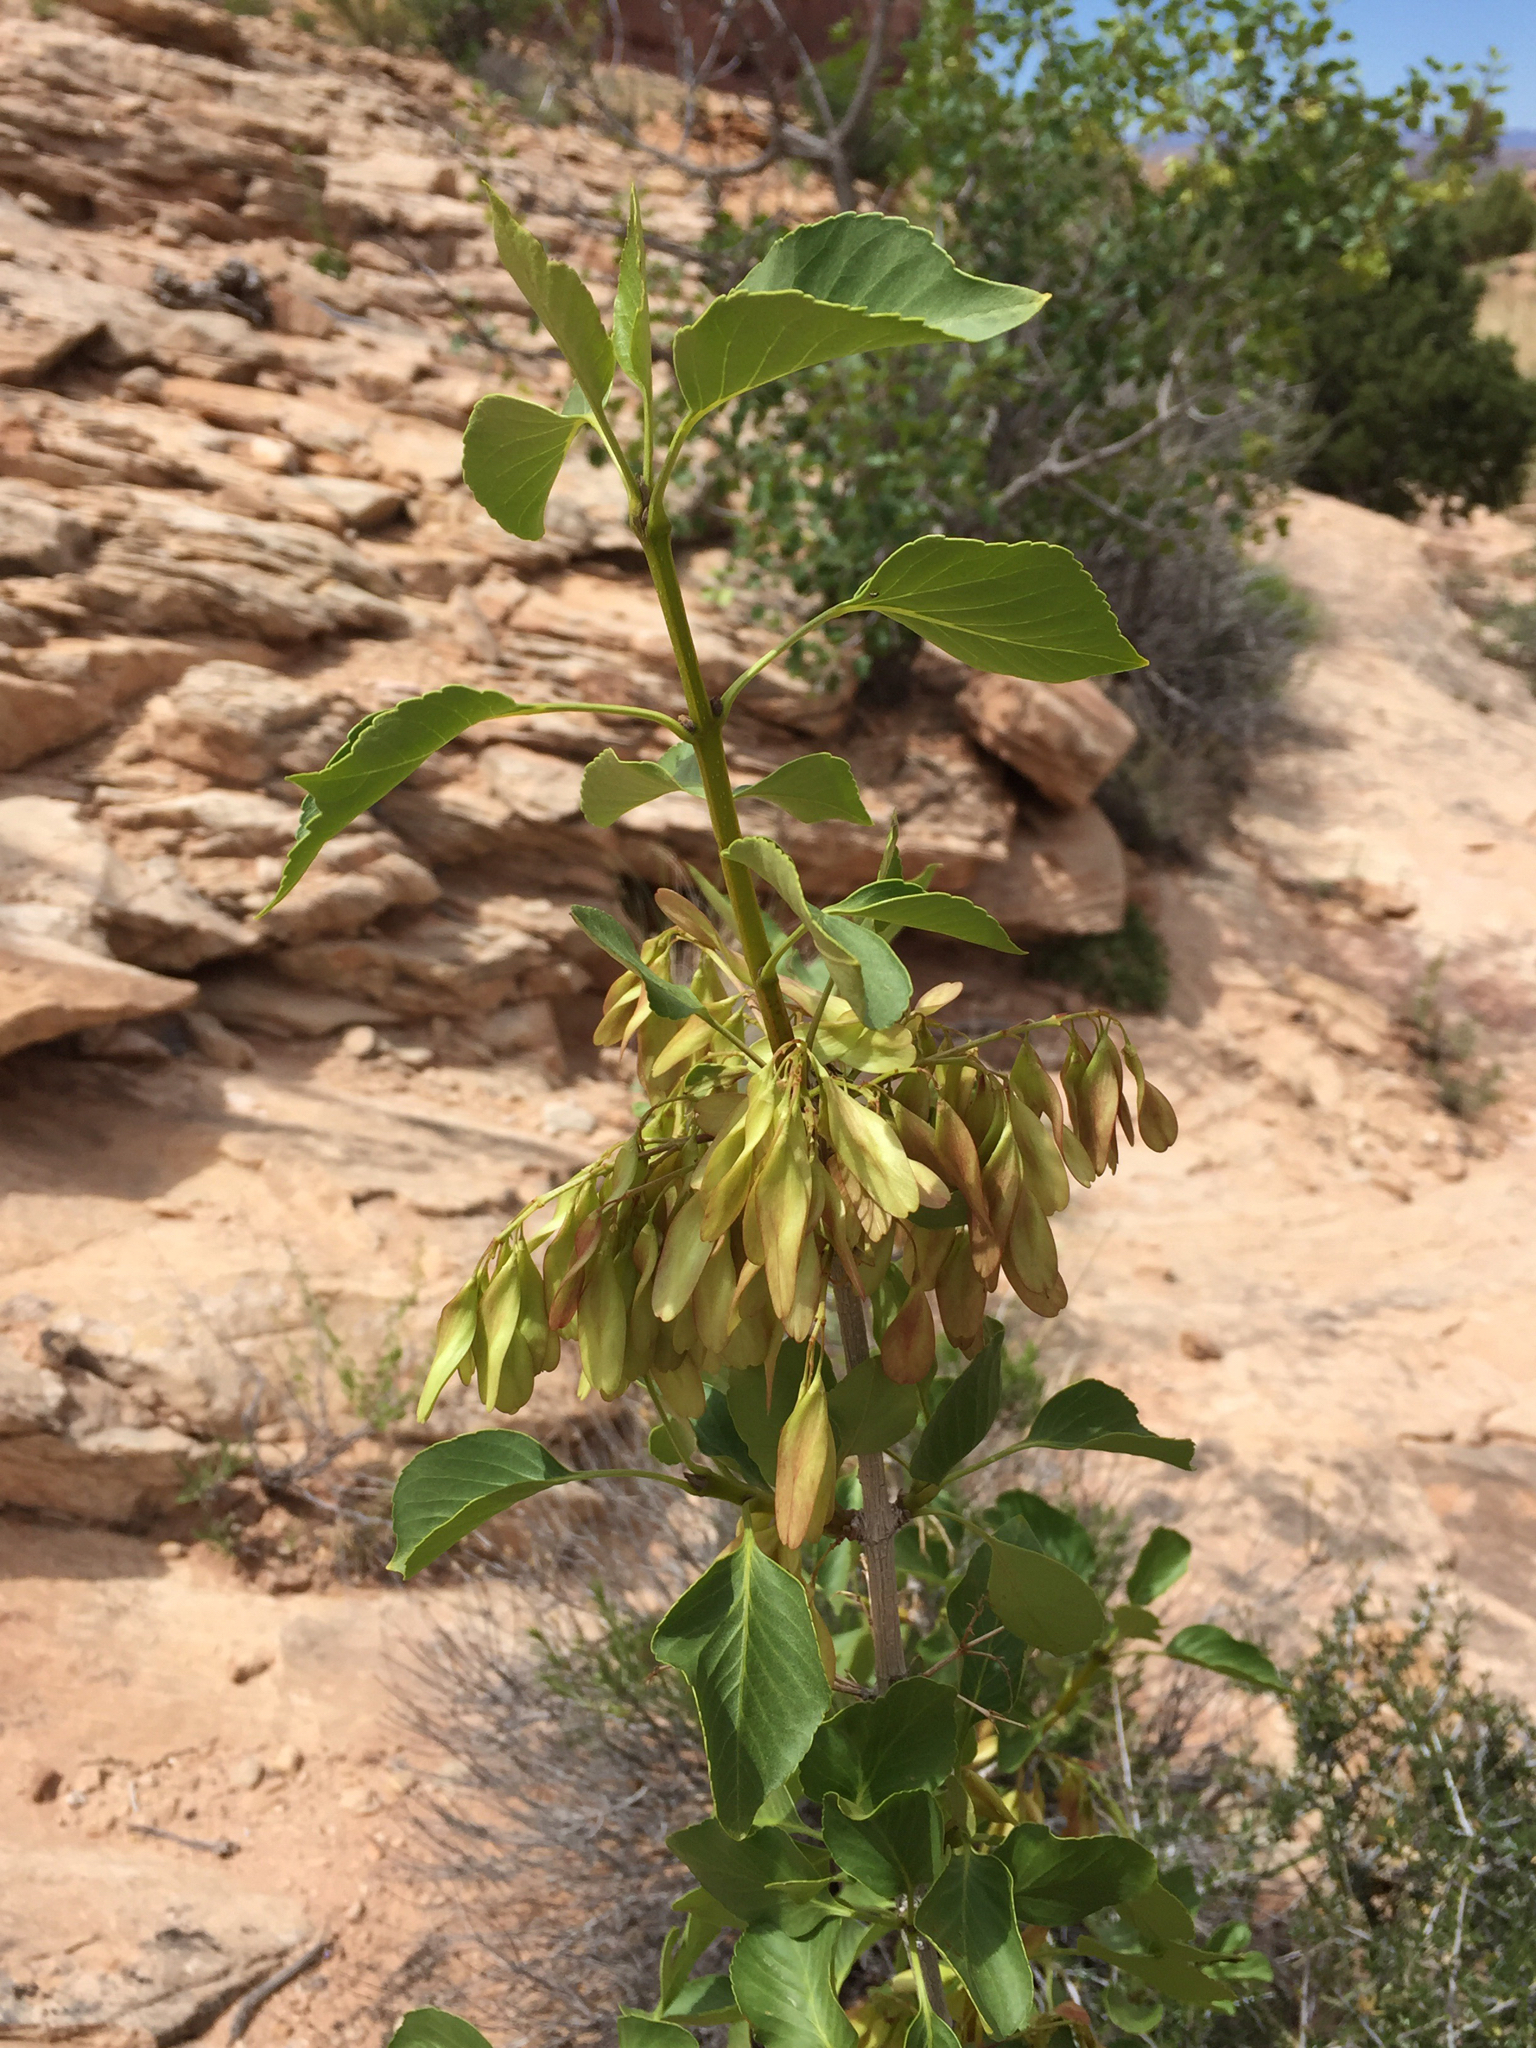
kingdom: Plantae
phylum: Tracheophyta
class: Magnoliopsida
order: Lamiales
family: Oleaceae
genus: Fraxinus
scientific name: Fraxinus anomala
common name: Utah ash
